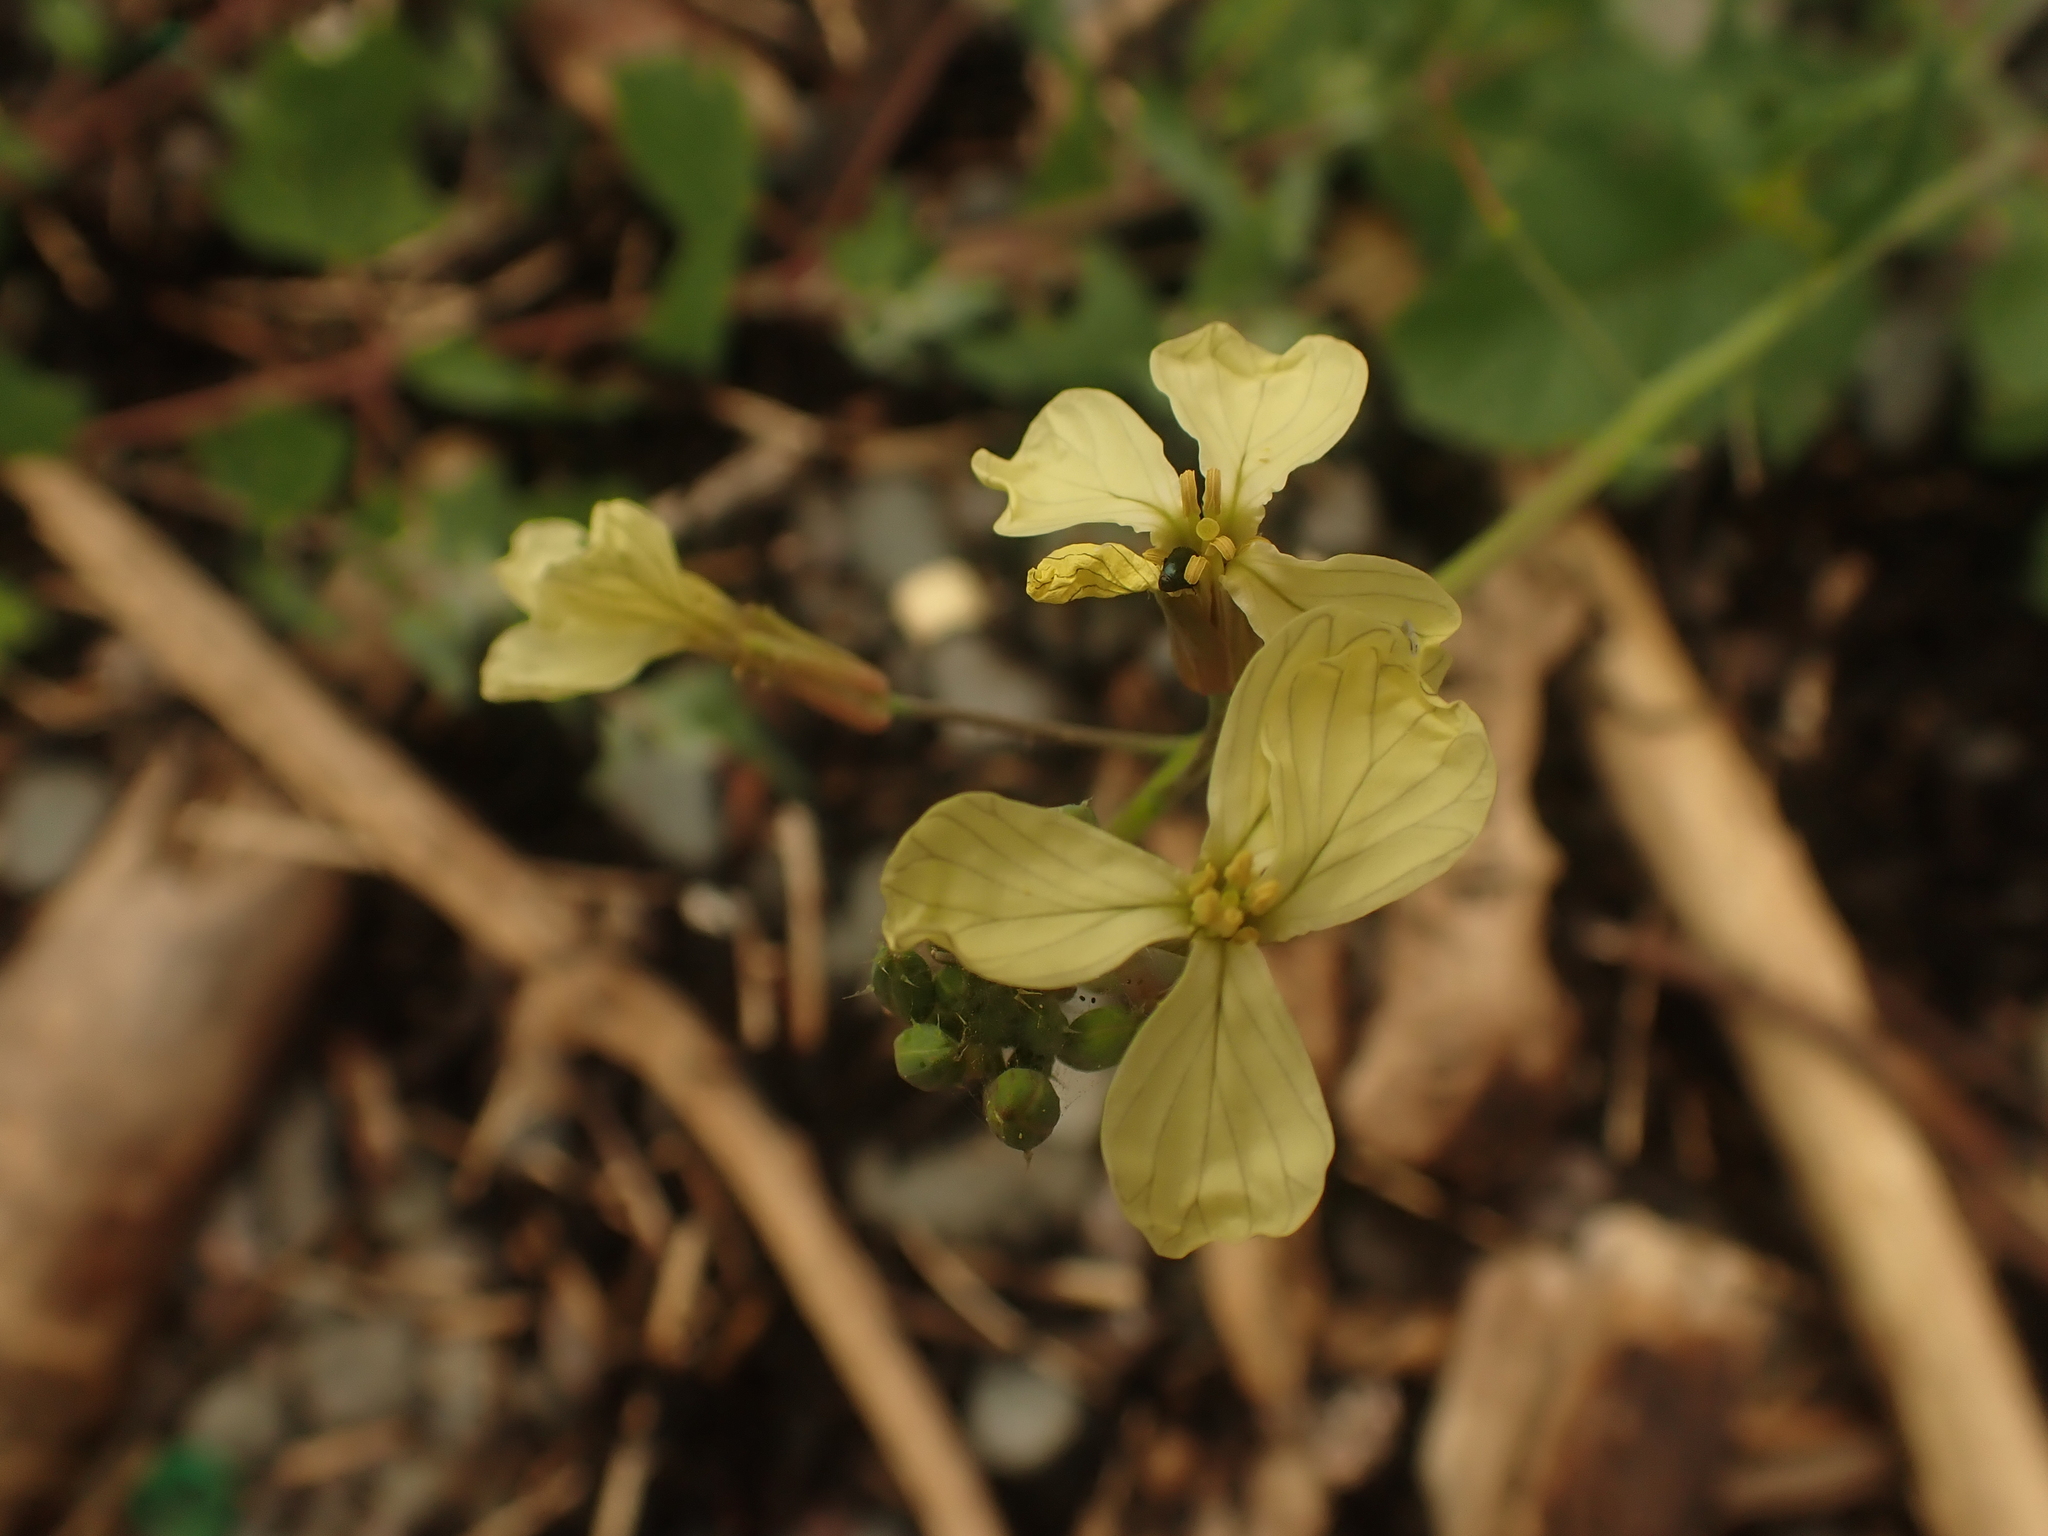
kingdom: Plantae
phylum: Tracheophyta
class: Magnoliopsida
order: Brassicales
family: Brassicaceae
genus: Raphanus
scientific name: Raphanus raphanistrum
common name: Wild radish
